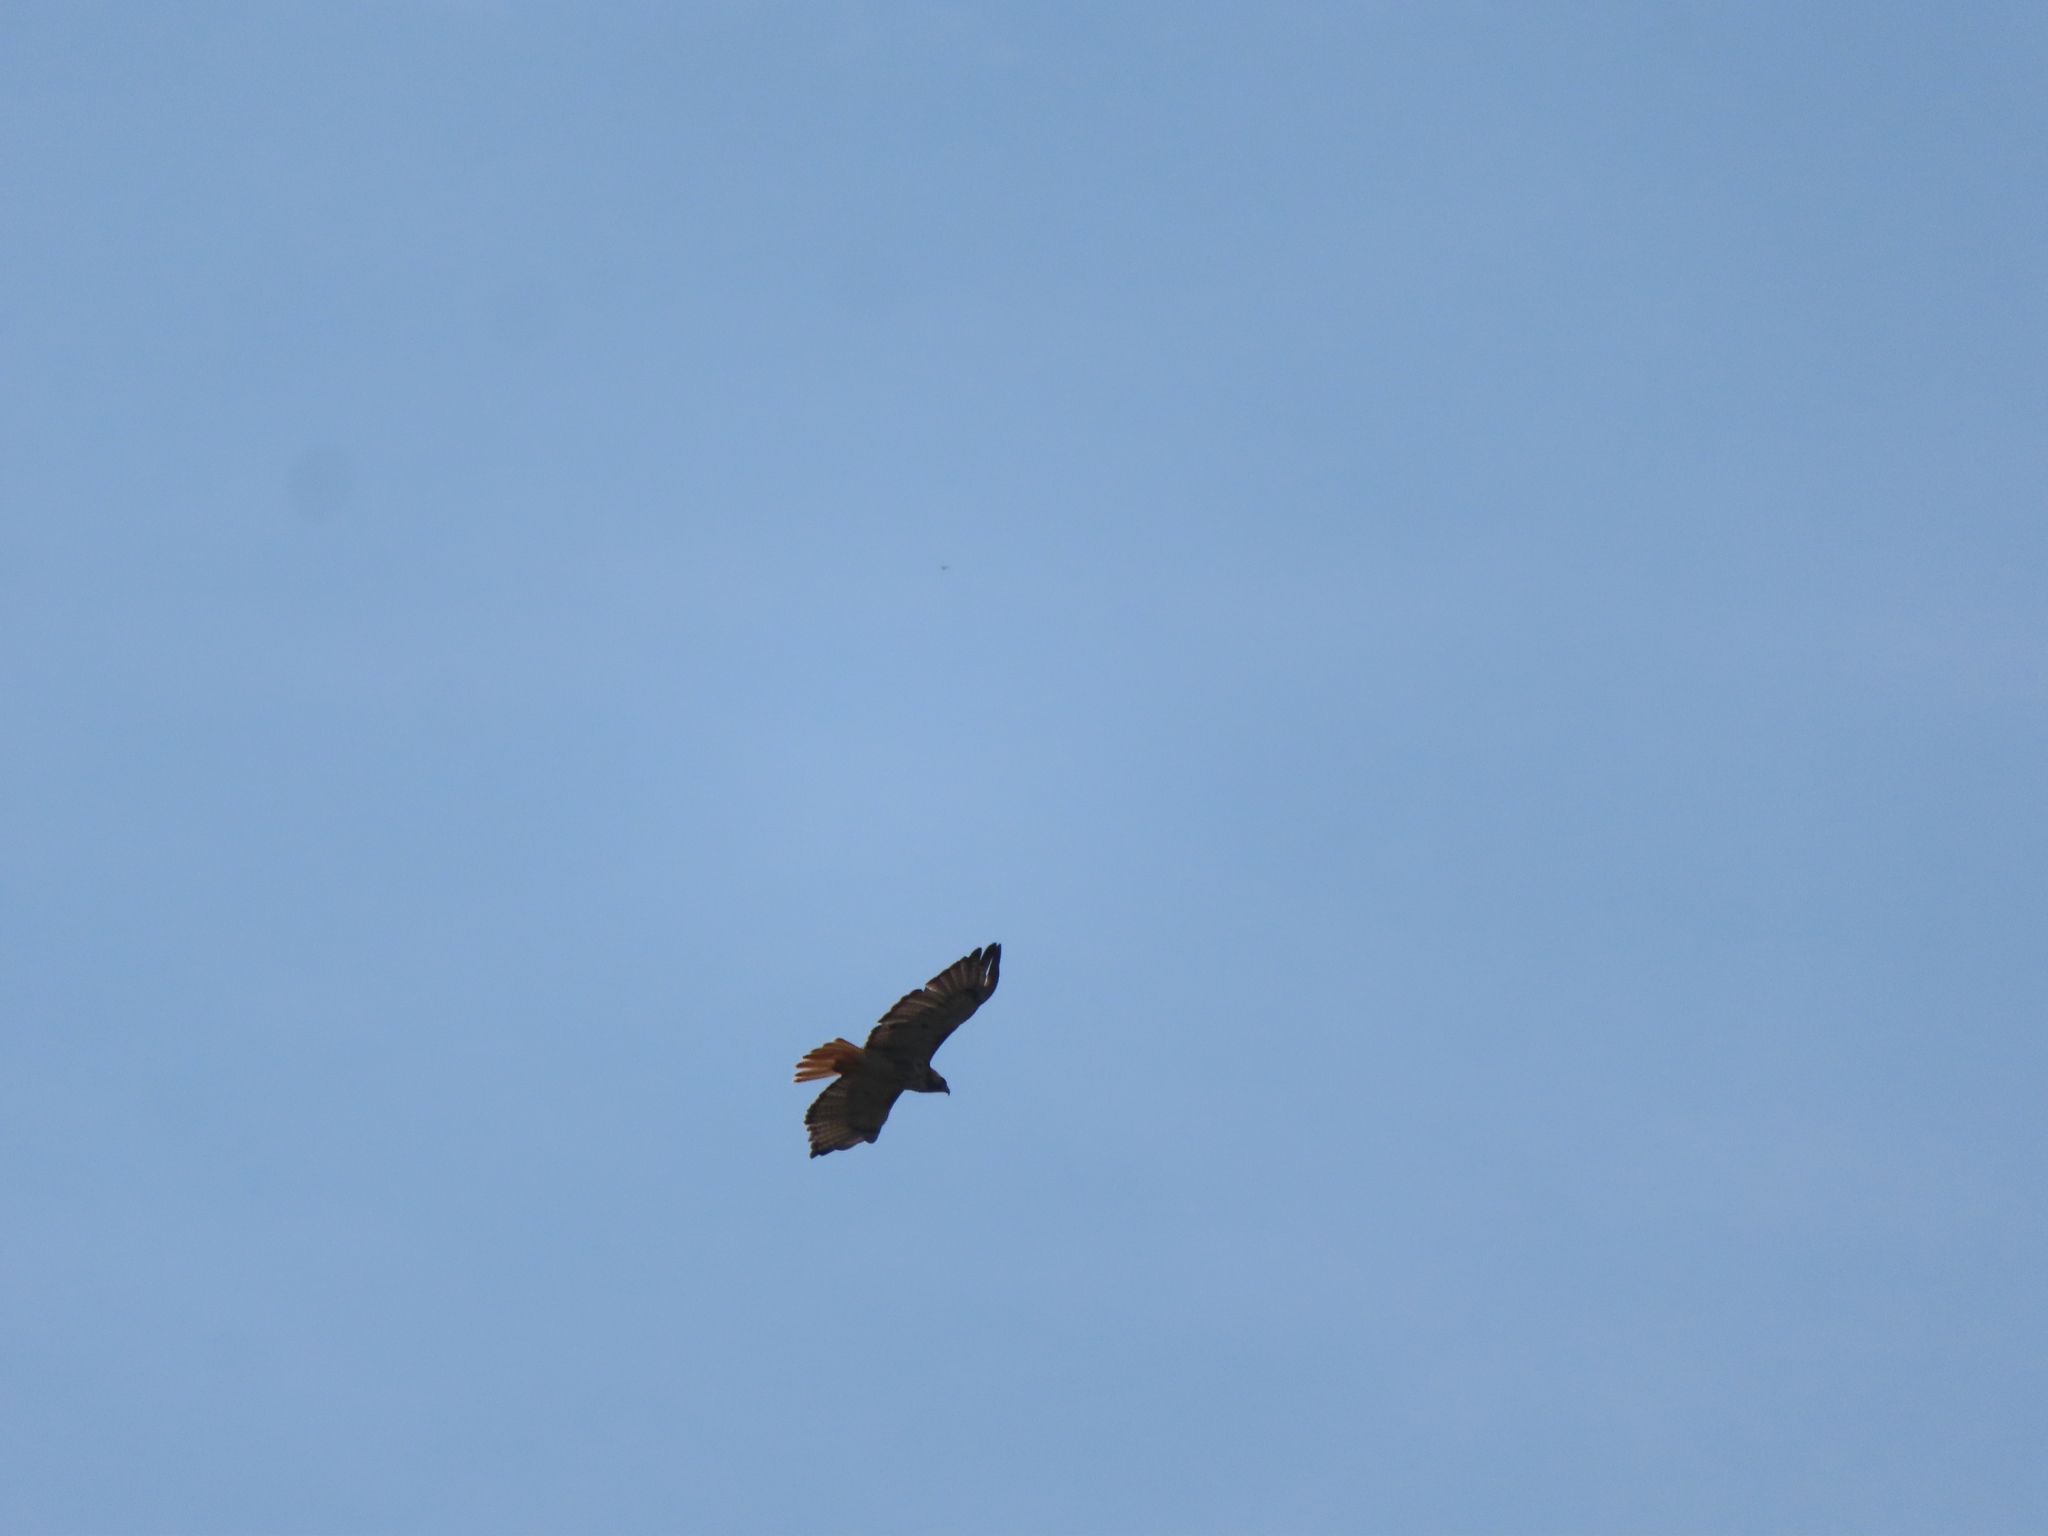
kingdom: Animalia
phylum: Chordata
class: Aves
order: Accipitriformes
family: Accipitridae
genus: Buteo
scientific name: Buteo jamaicensis
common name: Red-tailed hawk
